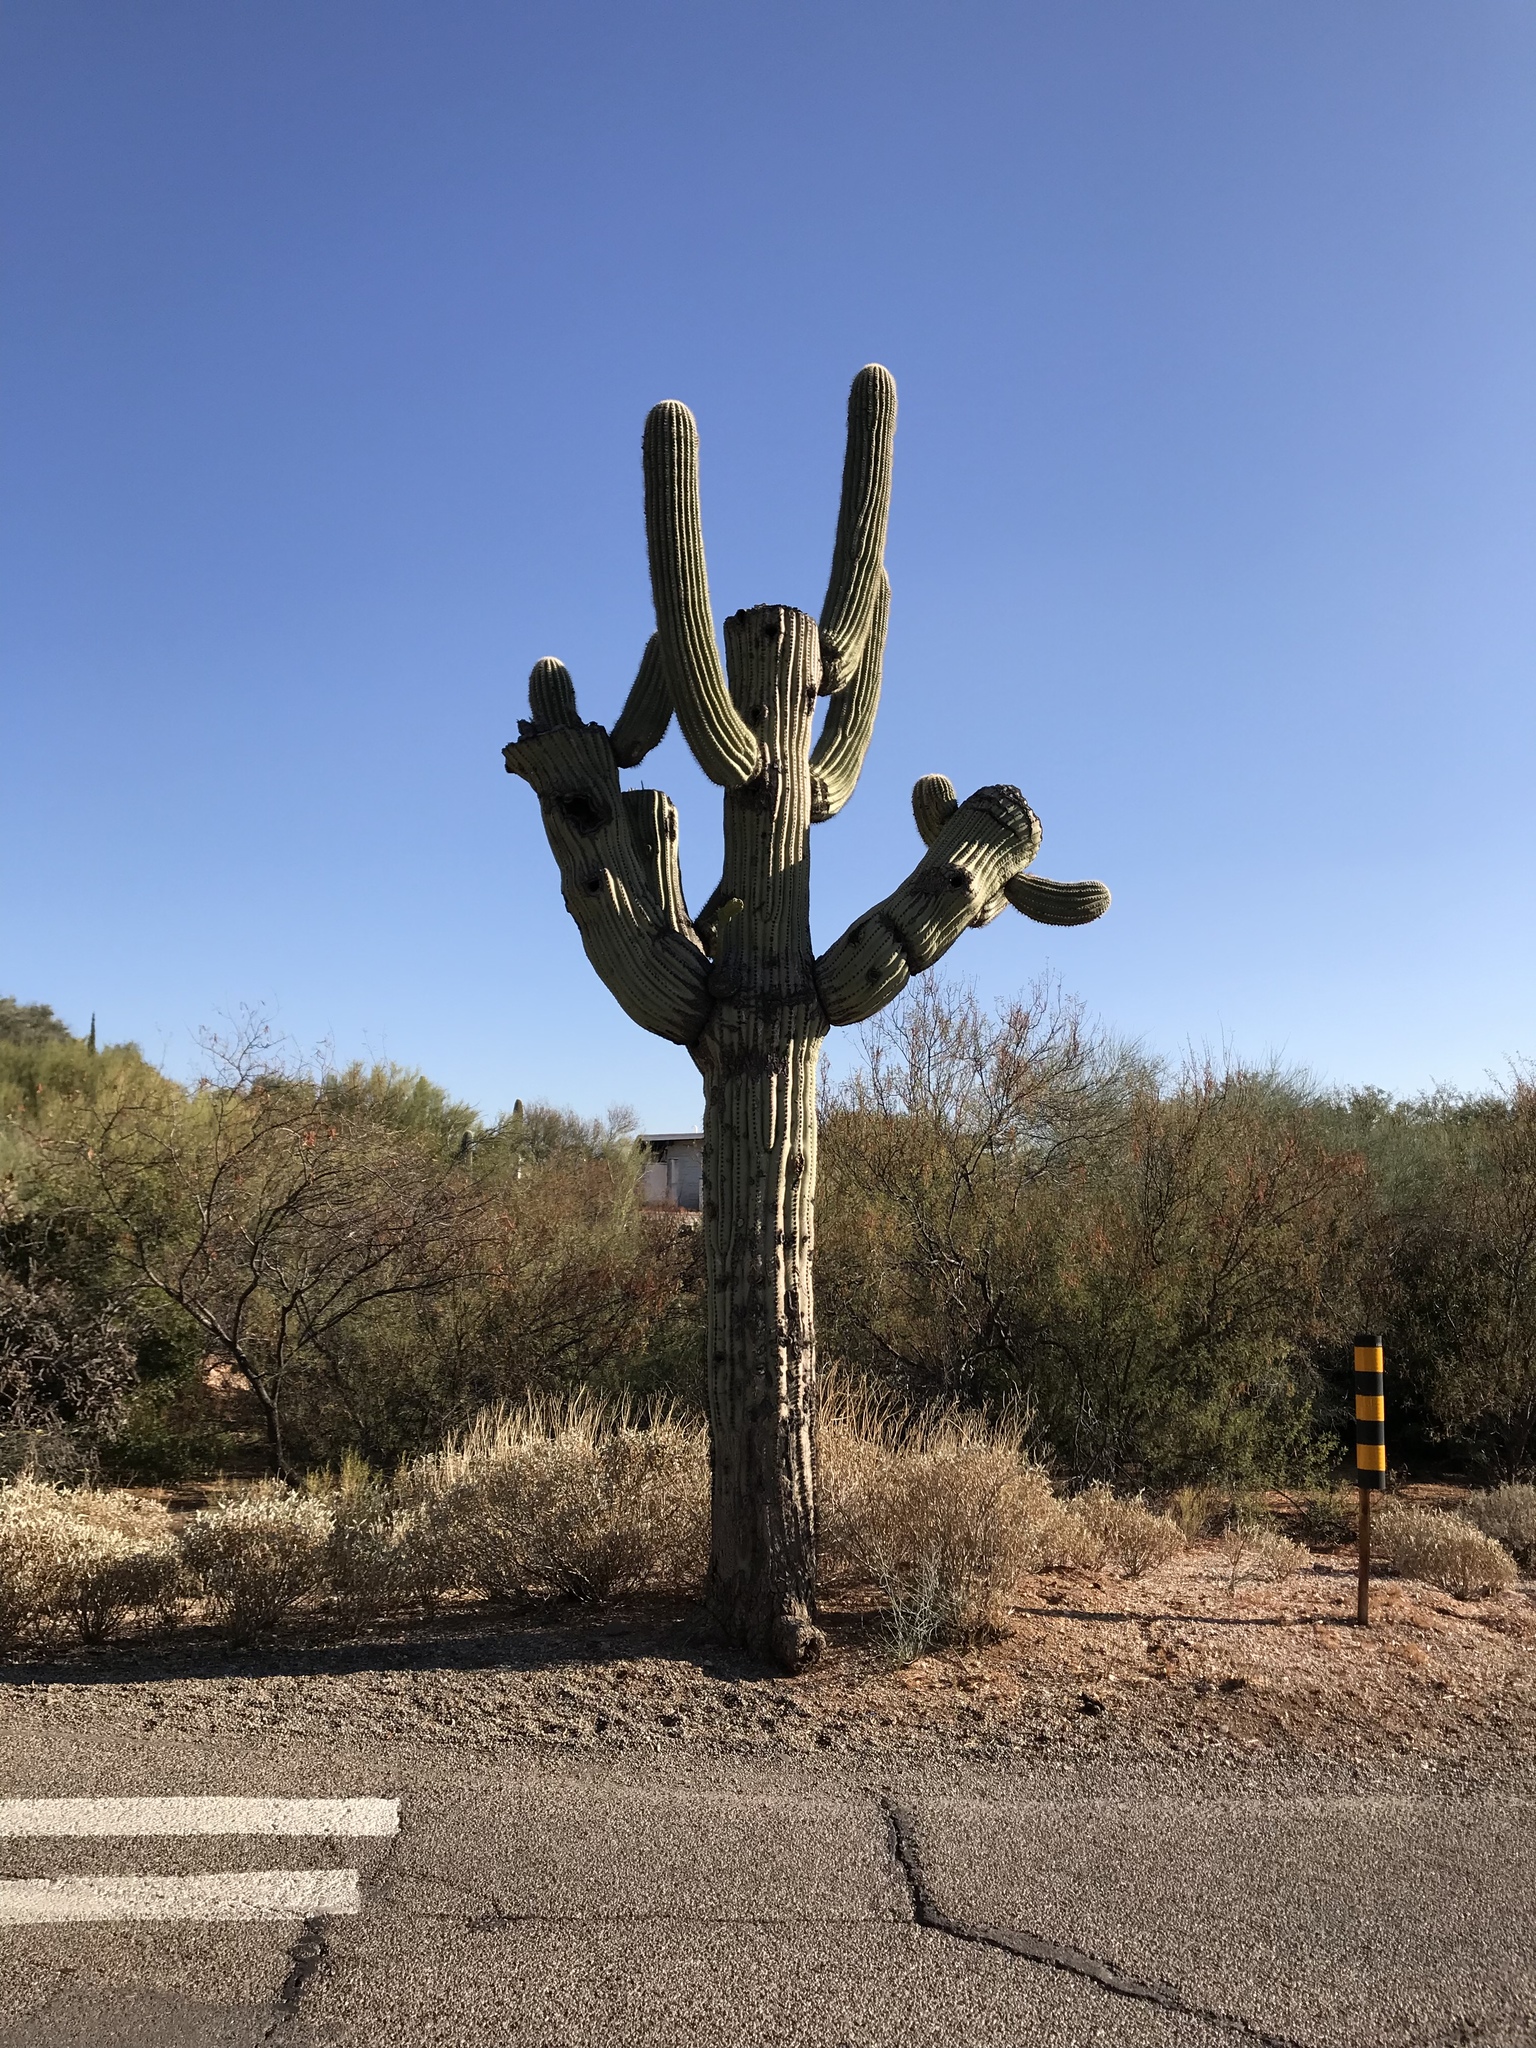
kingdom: Plantae
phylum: Tracheophyta
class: Magnoliopsida
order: Caryophyllales
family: Cactaceae
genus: Carnegiea
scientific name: Carnegiea gigantea
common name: Saguaro
